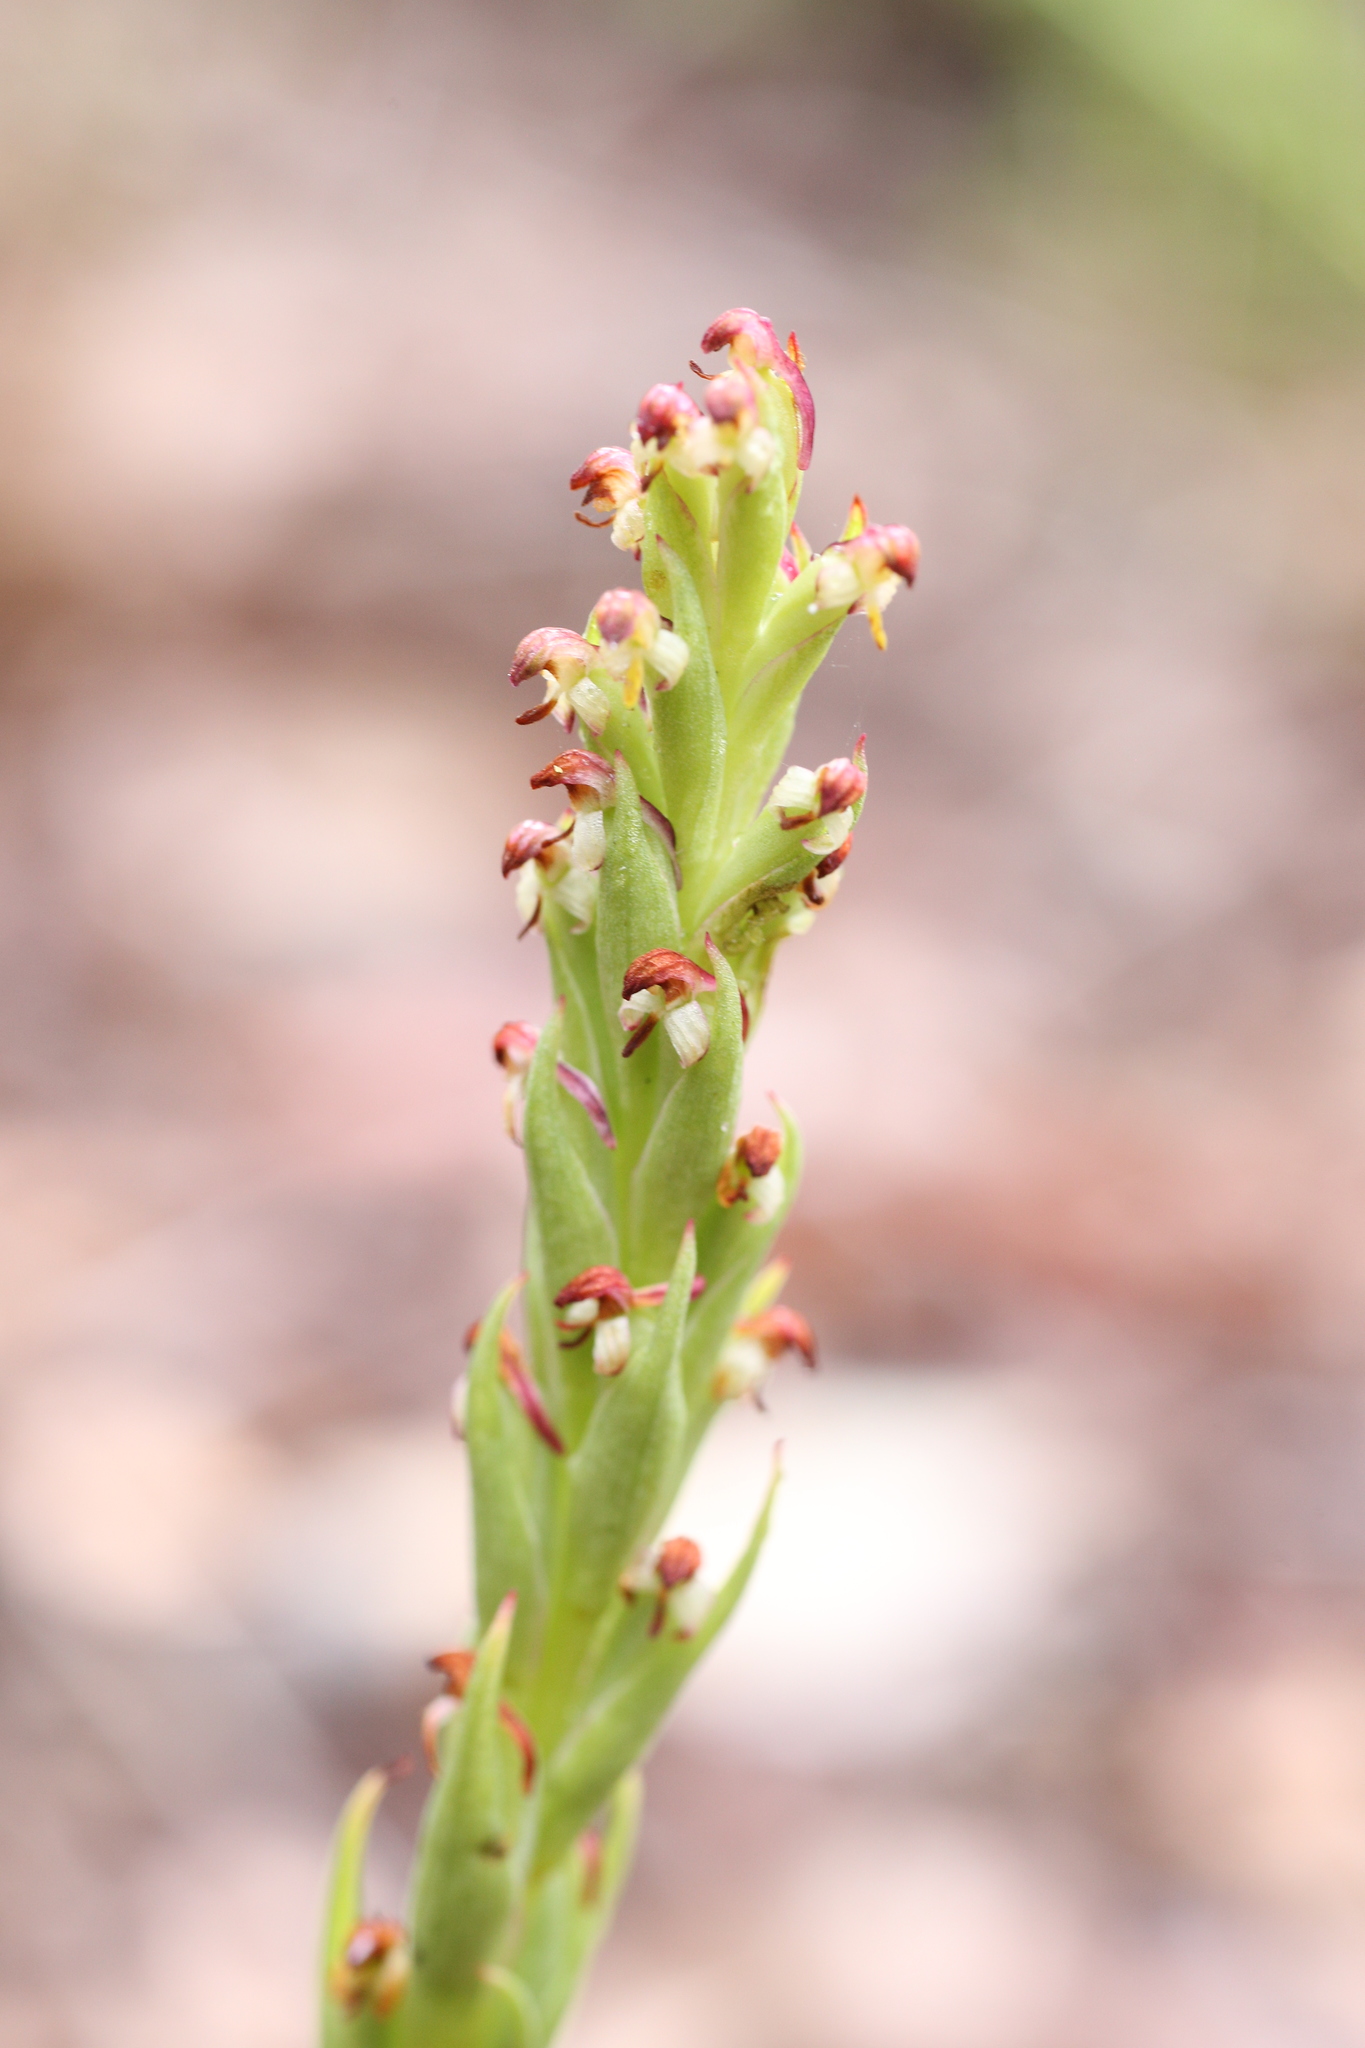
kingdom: Plantae
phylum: Tracheophyta
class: Liliopsida
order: Asparagales
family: Orchidaceae
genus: Disa
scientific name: Disa bracteata
